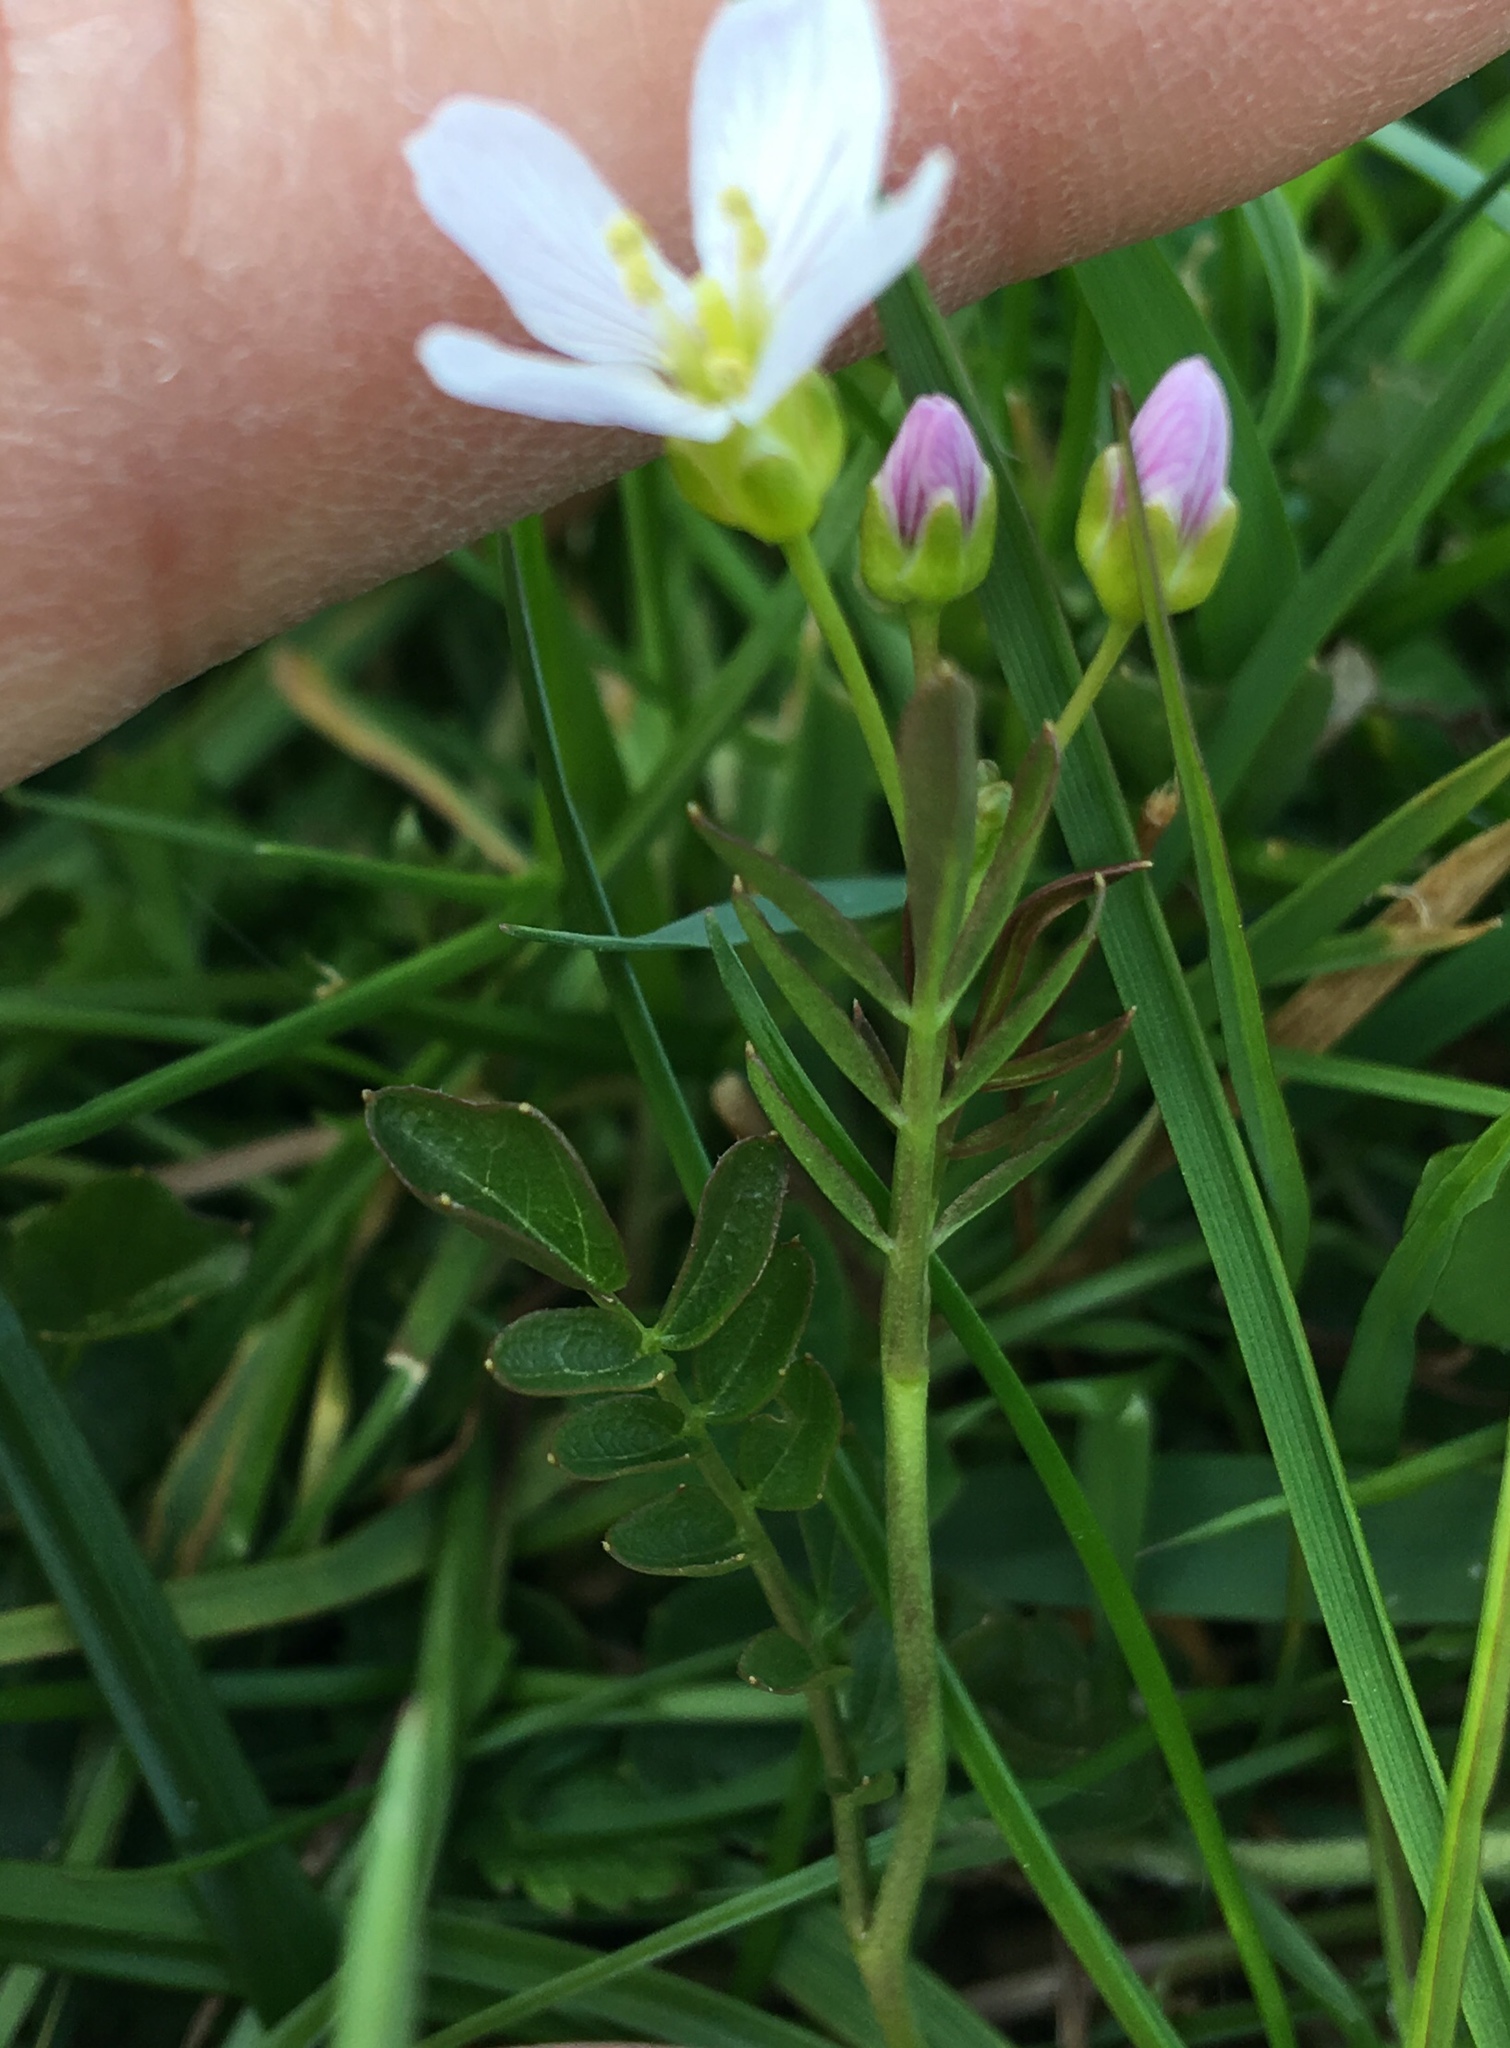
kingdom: Plantae
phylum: Tracheophyta
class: Magnoliopsida
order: Brassicales
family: Brassicaceae
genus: Cardamine
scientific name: Cardamine pratensis
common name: Cuckoo flower
